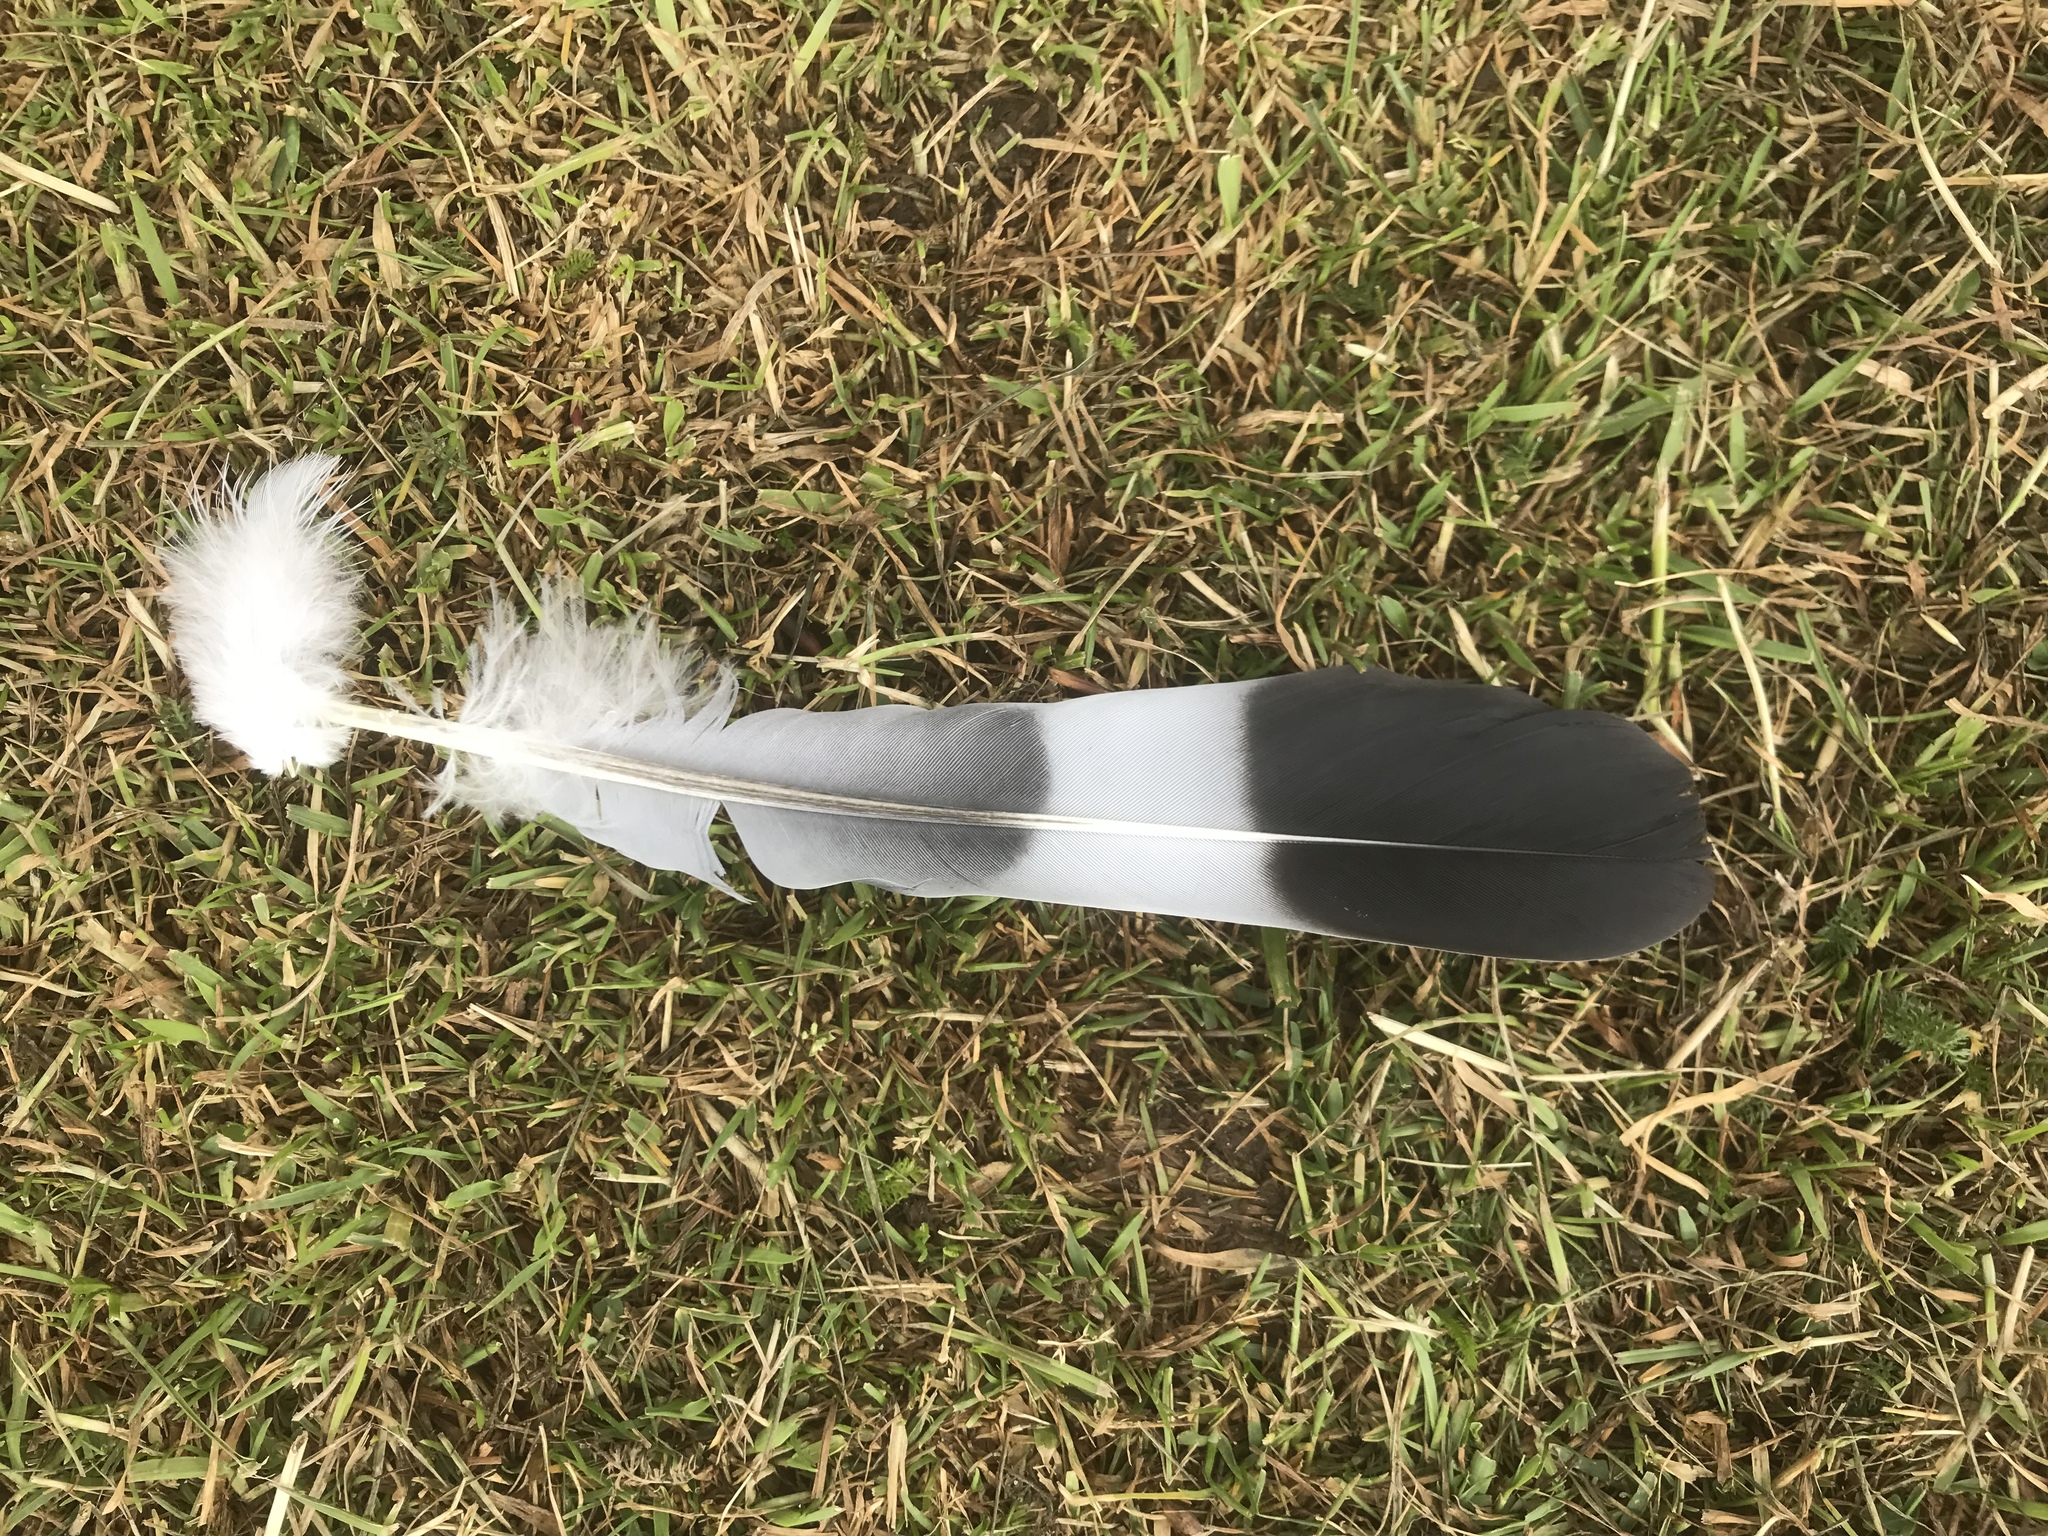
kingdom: Animalia
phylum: Chordata
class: Aves
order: Columbiformes
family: Columbidae
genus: Columba
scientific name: Columba palumbus
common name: Common wood pigeon
